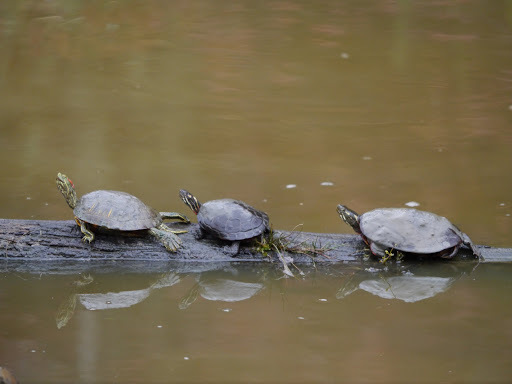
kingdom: Animalia
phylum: Chordata
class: Testudines
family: Emydidae
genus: Chrysemys
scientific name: Chrysemys picta
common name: Painted turtle
